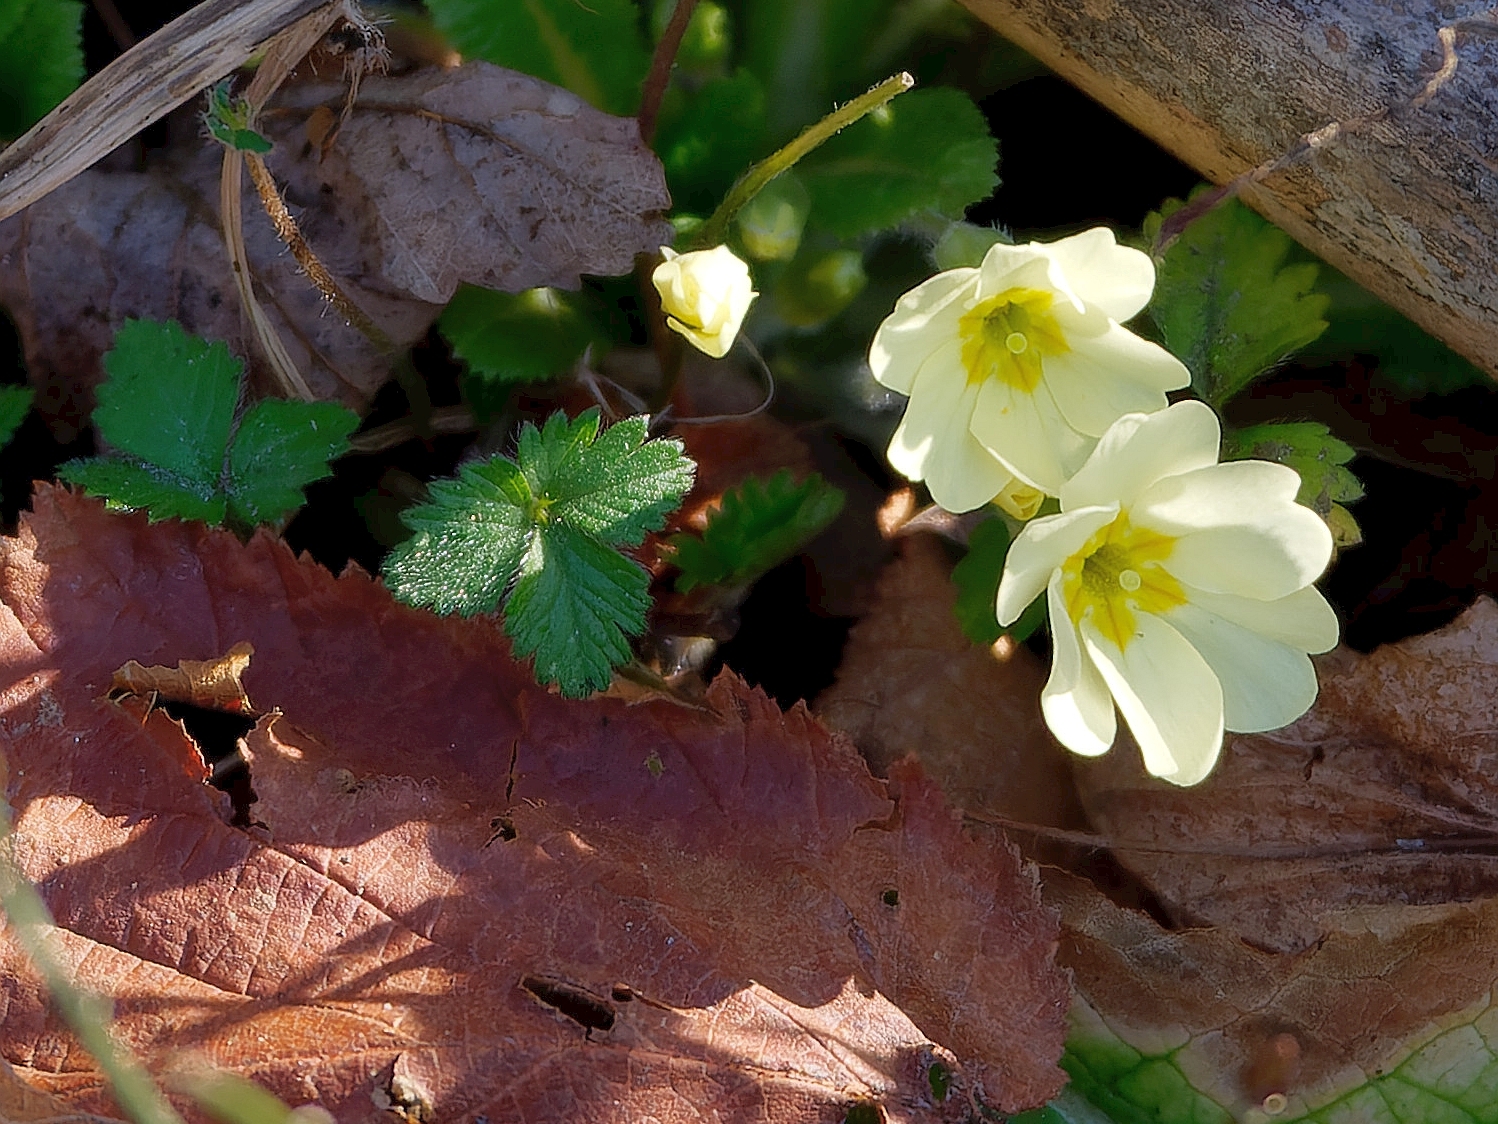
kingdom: Plantae
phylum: Tracheophyta
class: Magnoliopsida
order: Ericales
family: Primulaceae
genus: Primula
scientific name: Primula vulgaris
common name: Primrose
